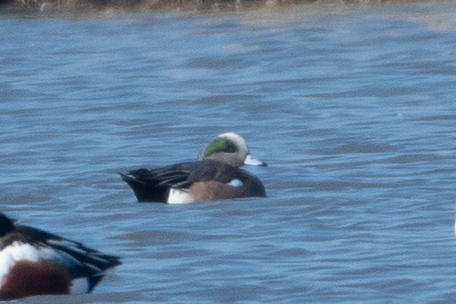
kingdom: Animalia
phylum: Chordata
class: Aves
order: Anseriformes
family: Anatidae
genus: Mareca
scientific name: Mareca americana
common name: American wigeon
